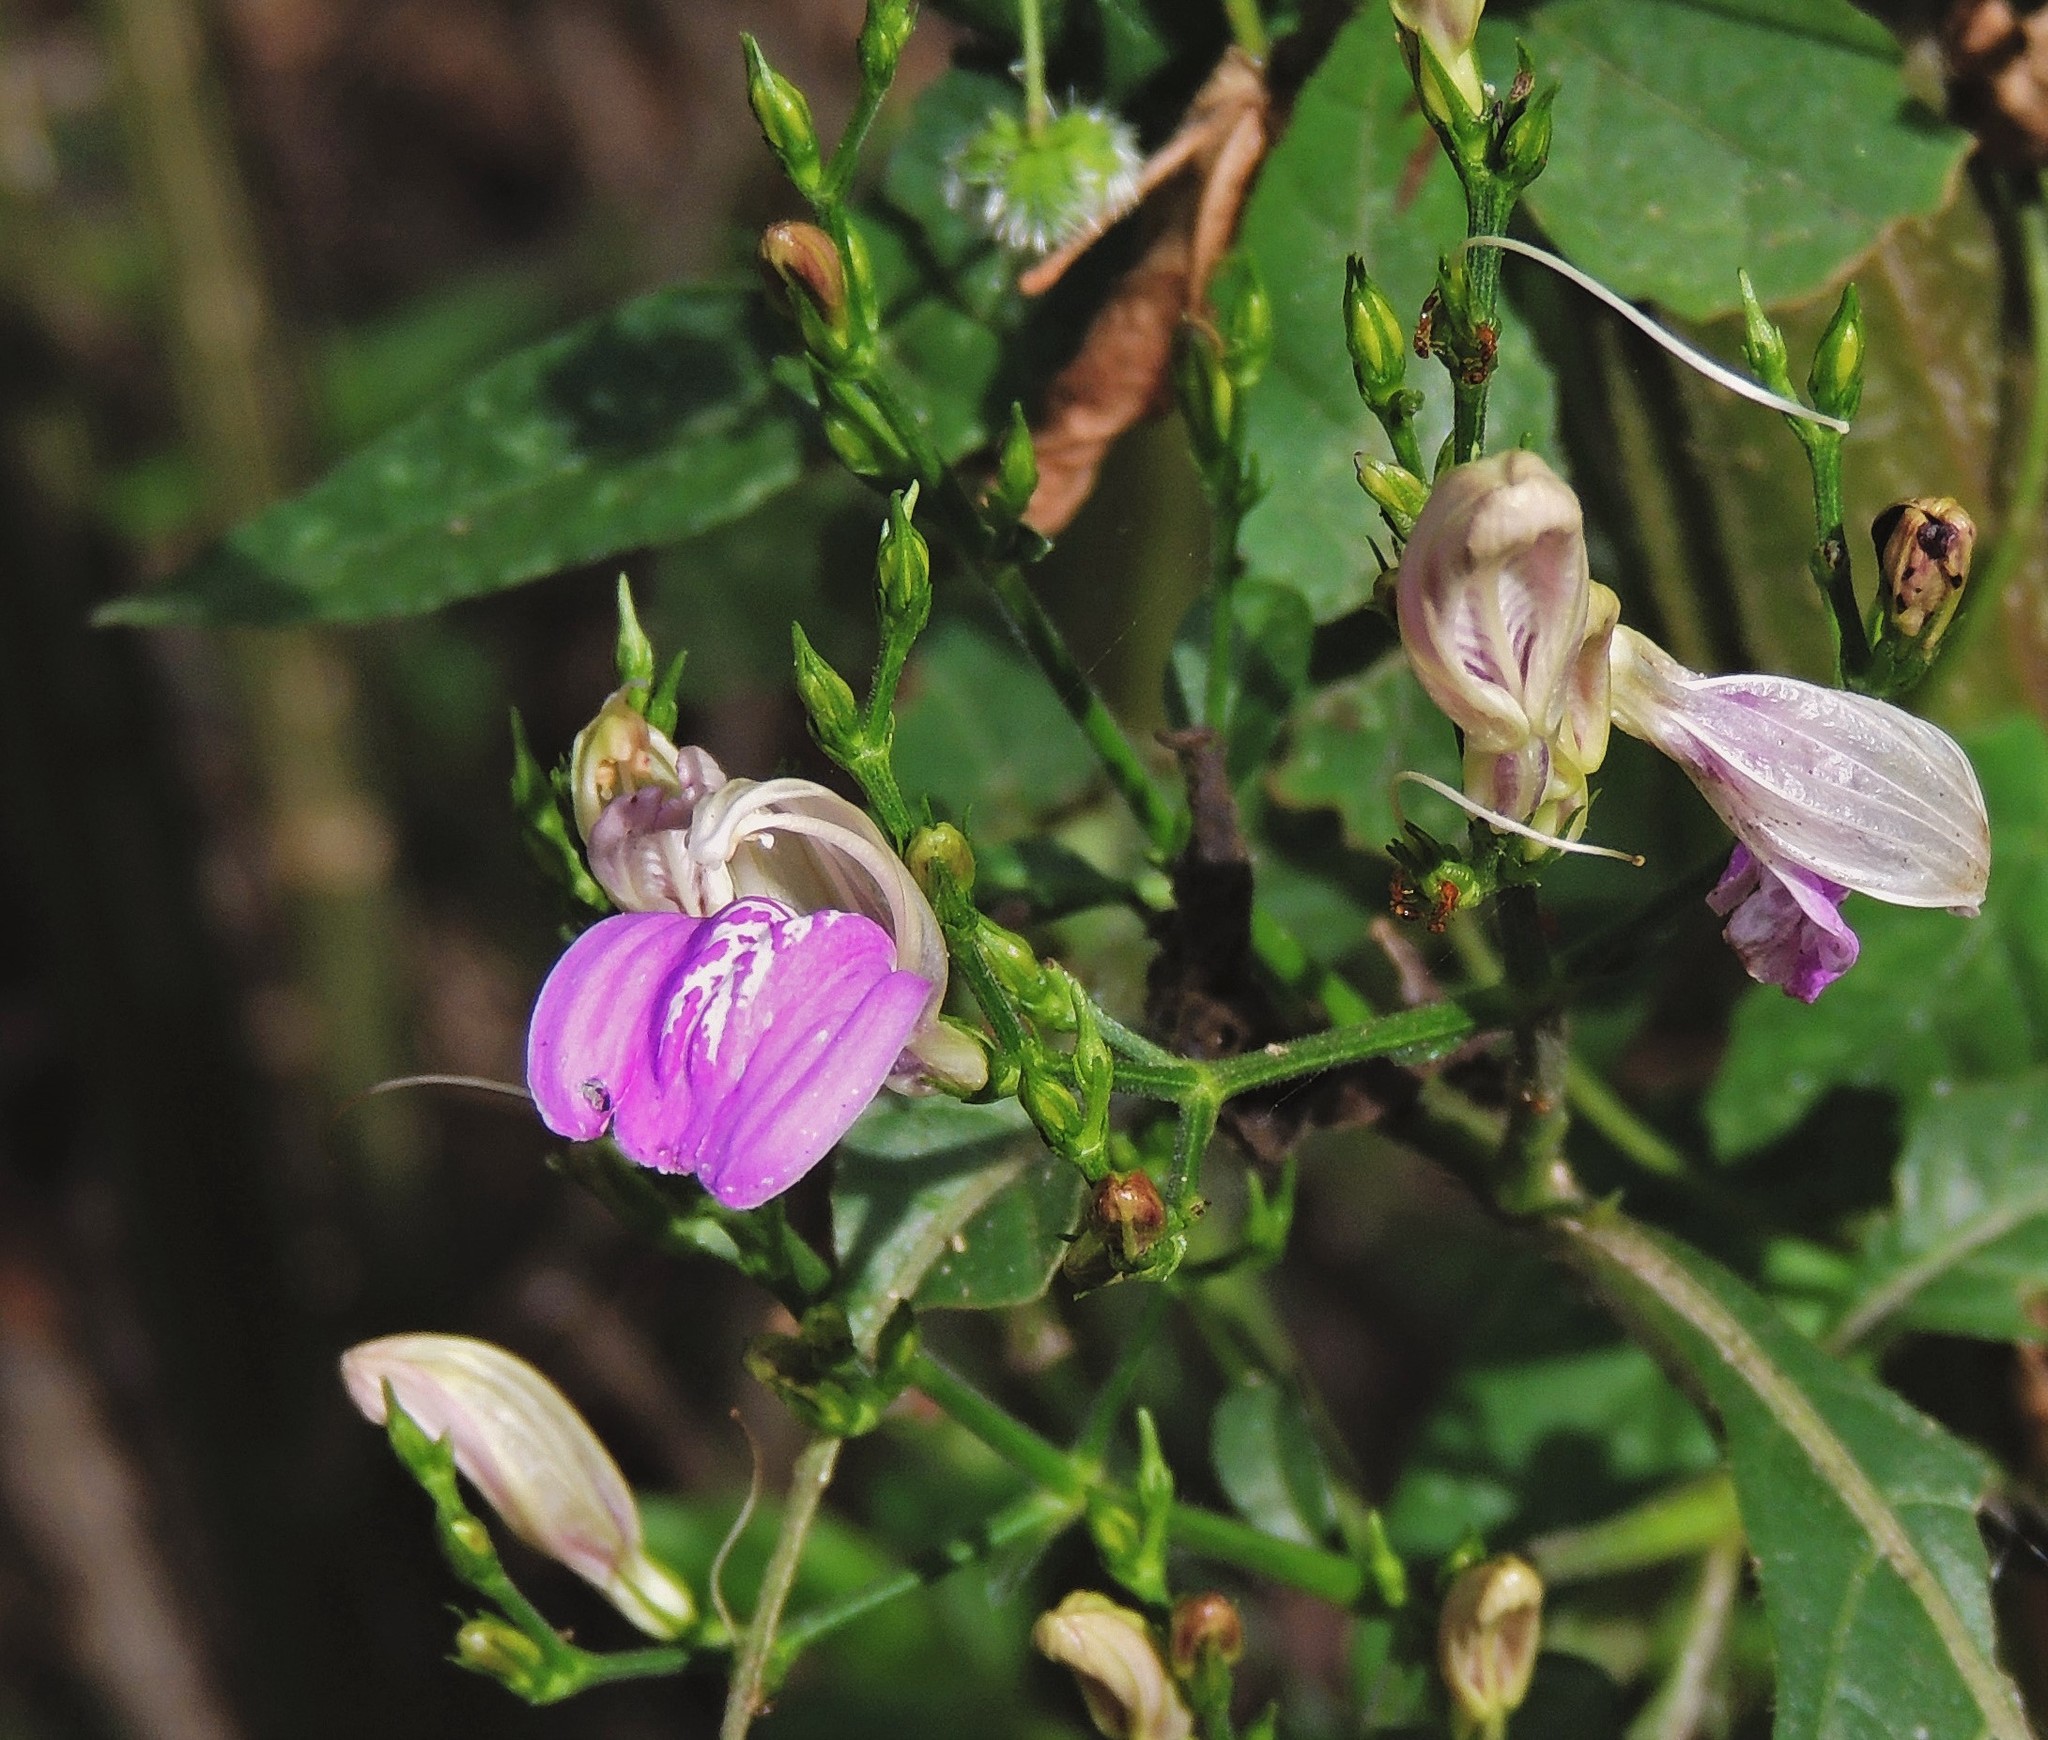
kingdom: Plantae
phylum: Tracheophyta
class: Magnoliopsida
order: Lamiales
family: Acanthaceae
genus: Justicia
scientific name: Justicia kuntzei
